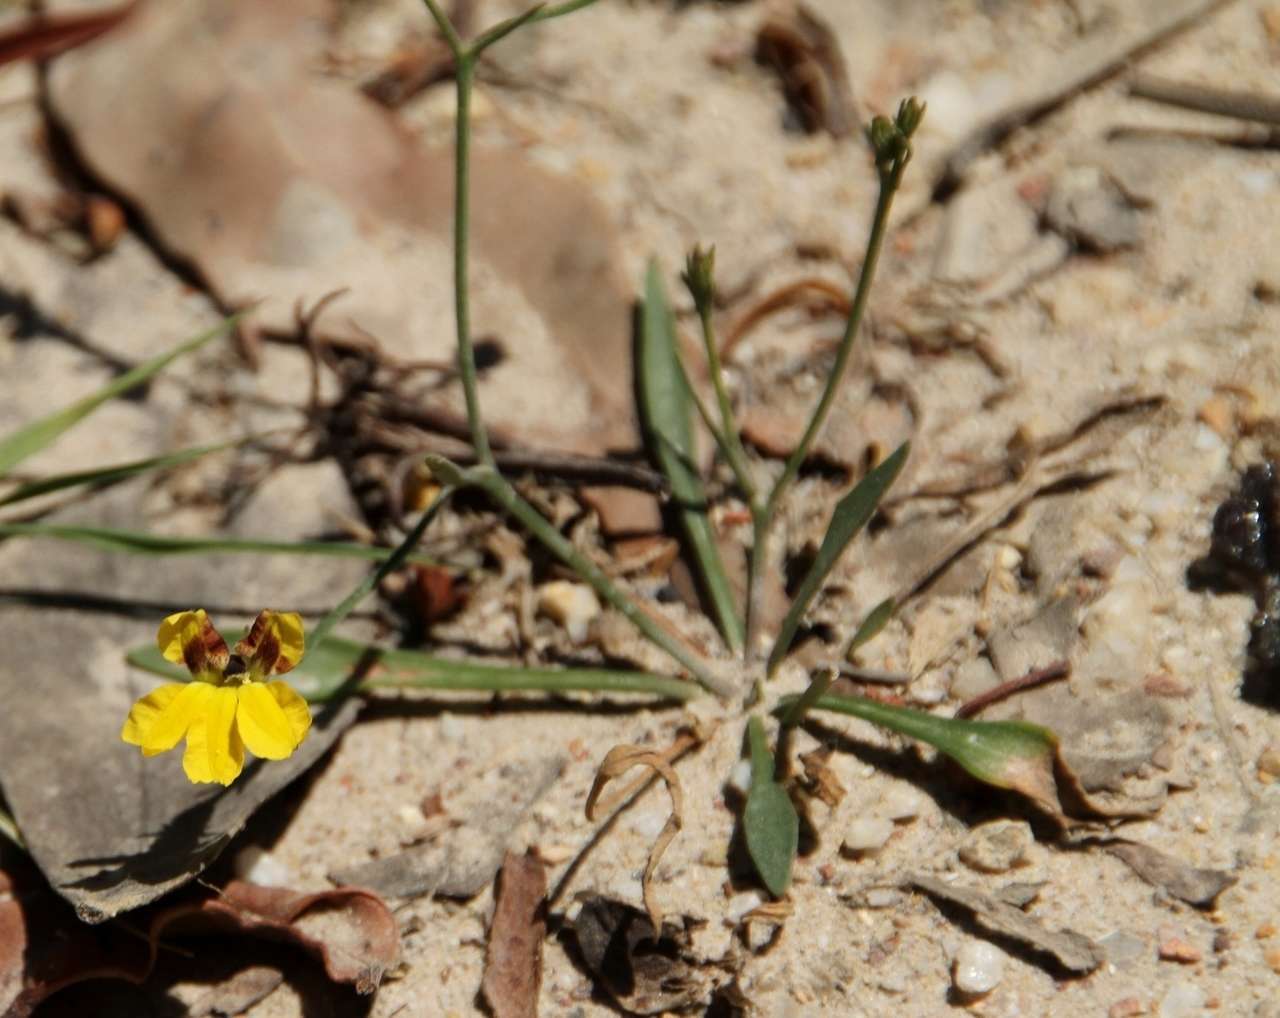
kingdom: Plantae
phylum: Tracheophyta
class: Magnoliopsida
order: Asterales
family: Goodeniaceae
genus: Goodenia
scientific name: Goodenia humilis
